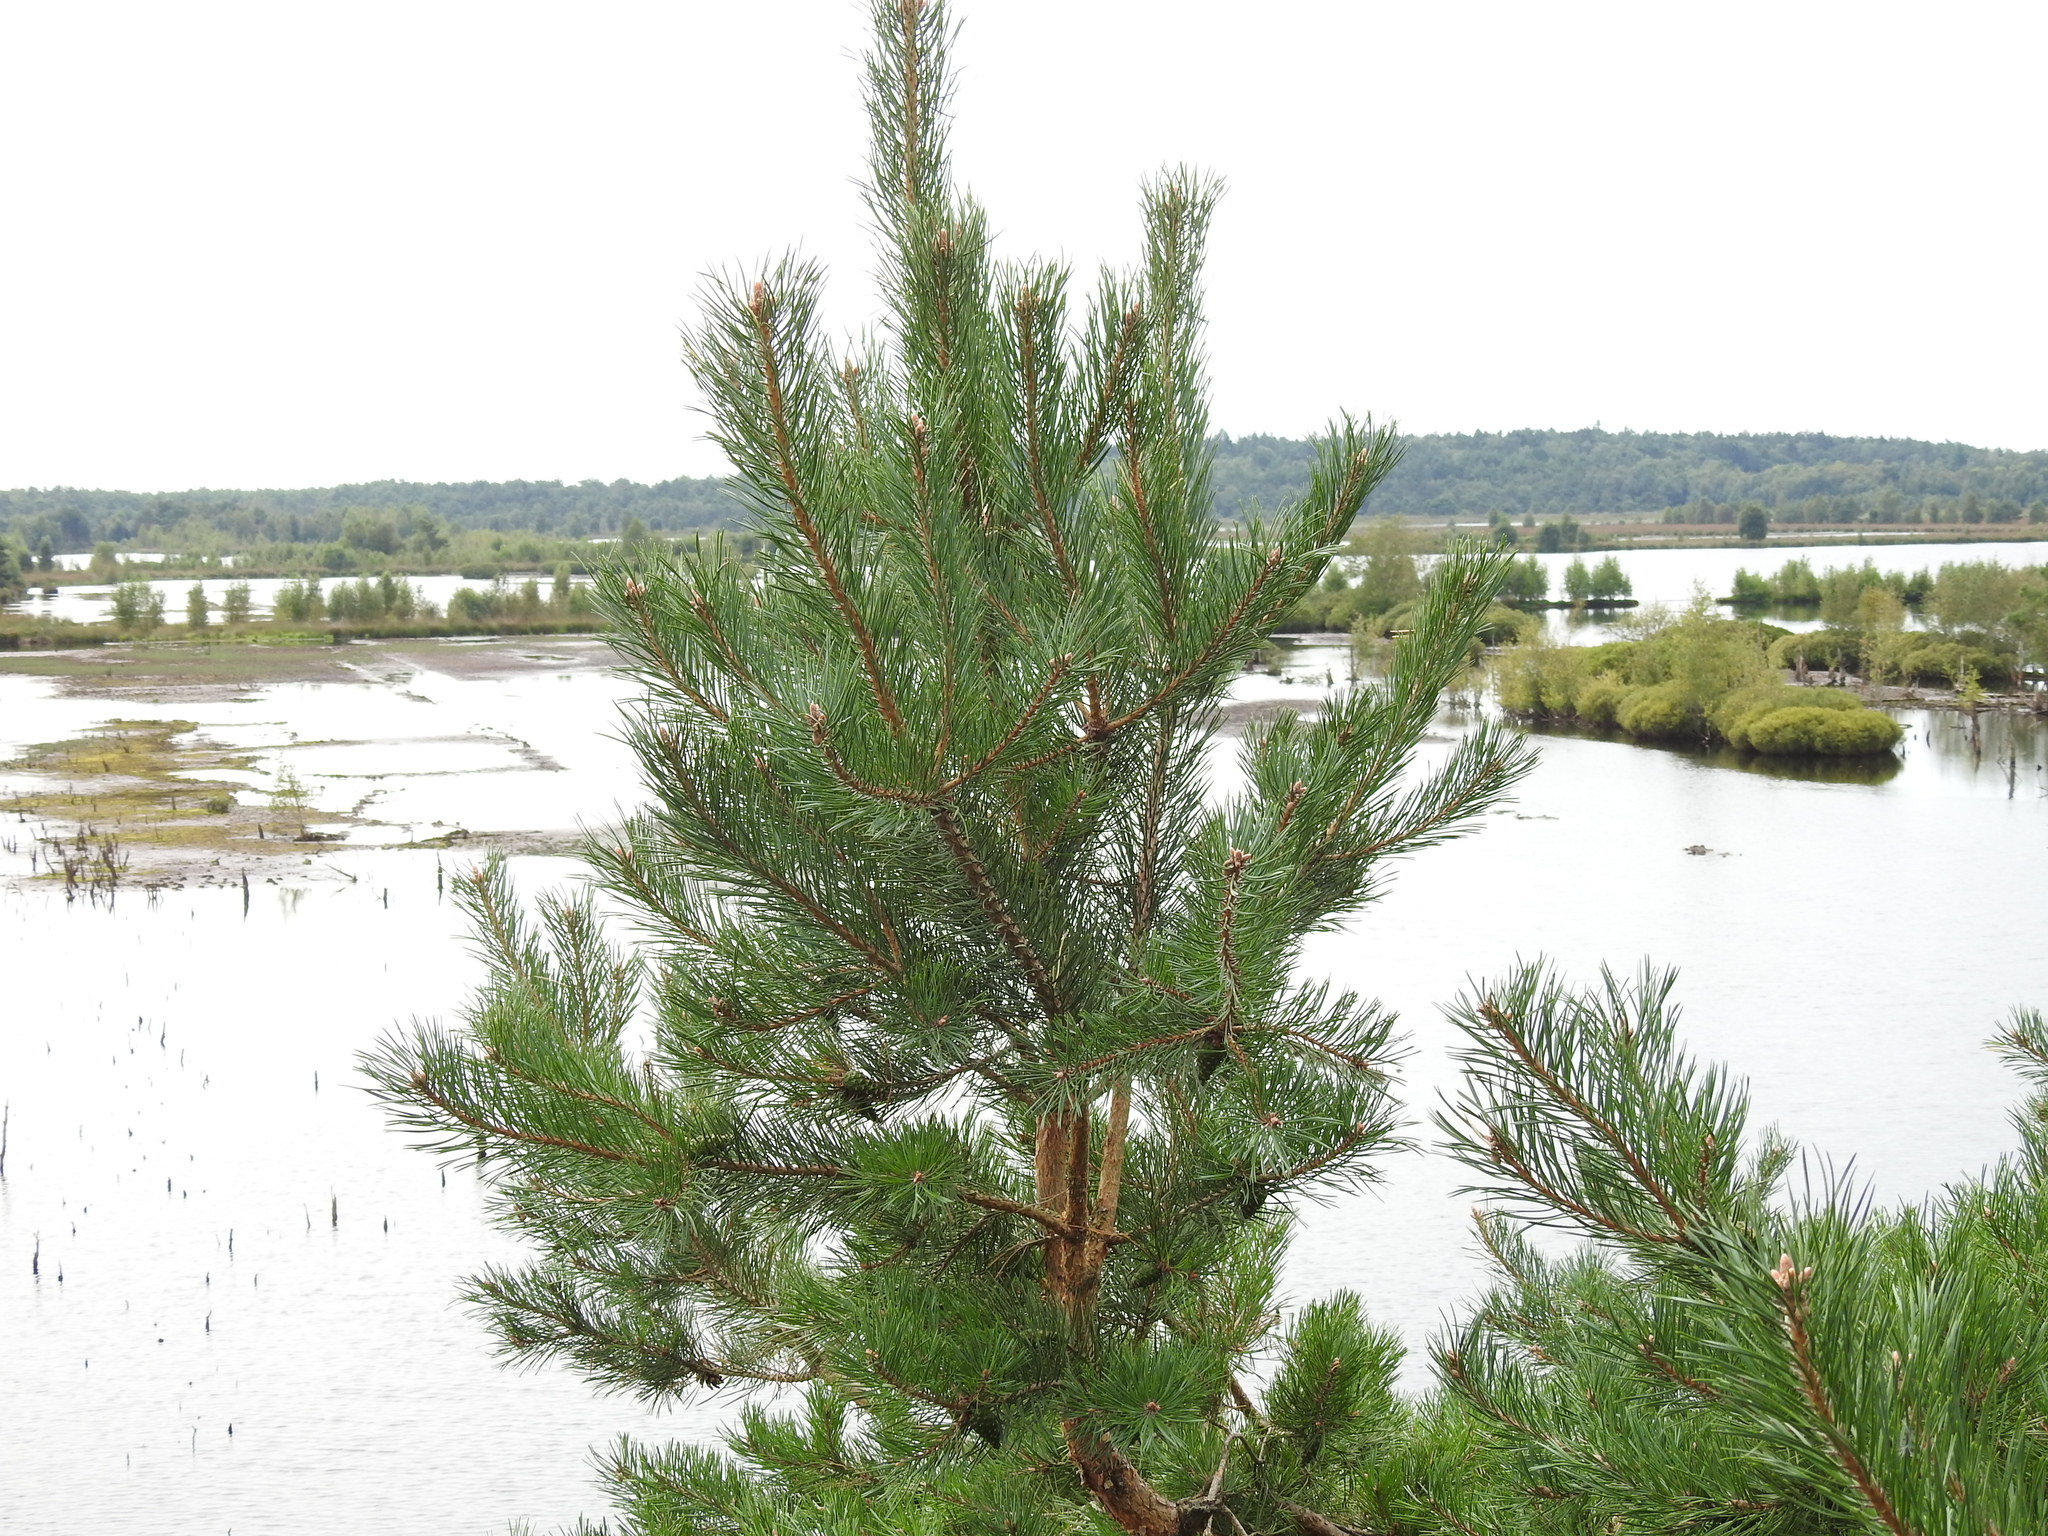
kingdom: Plantae
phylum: Tracheophyta
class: Pinopsida
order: Pinales
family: Pinaceae
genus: Pinus
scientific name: Pinus sylvestris
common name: Scots pine
